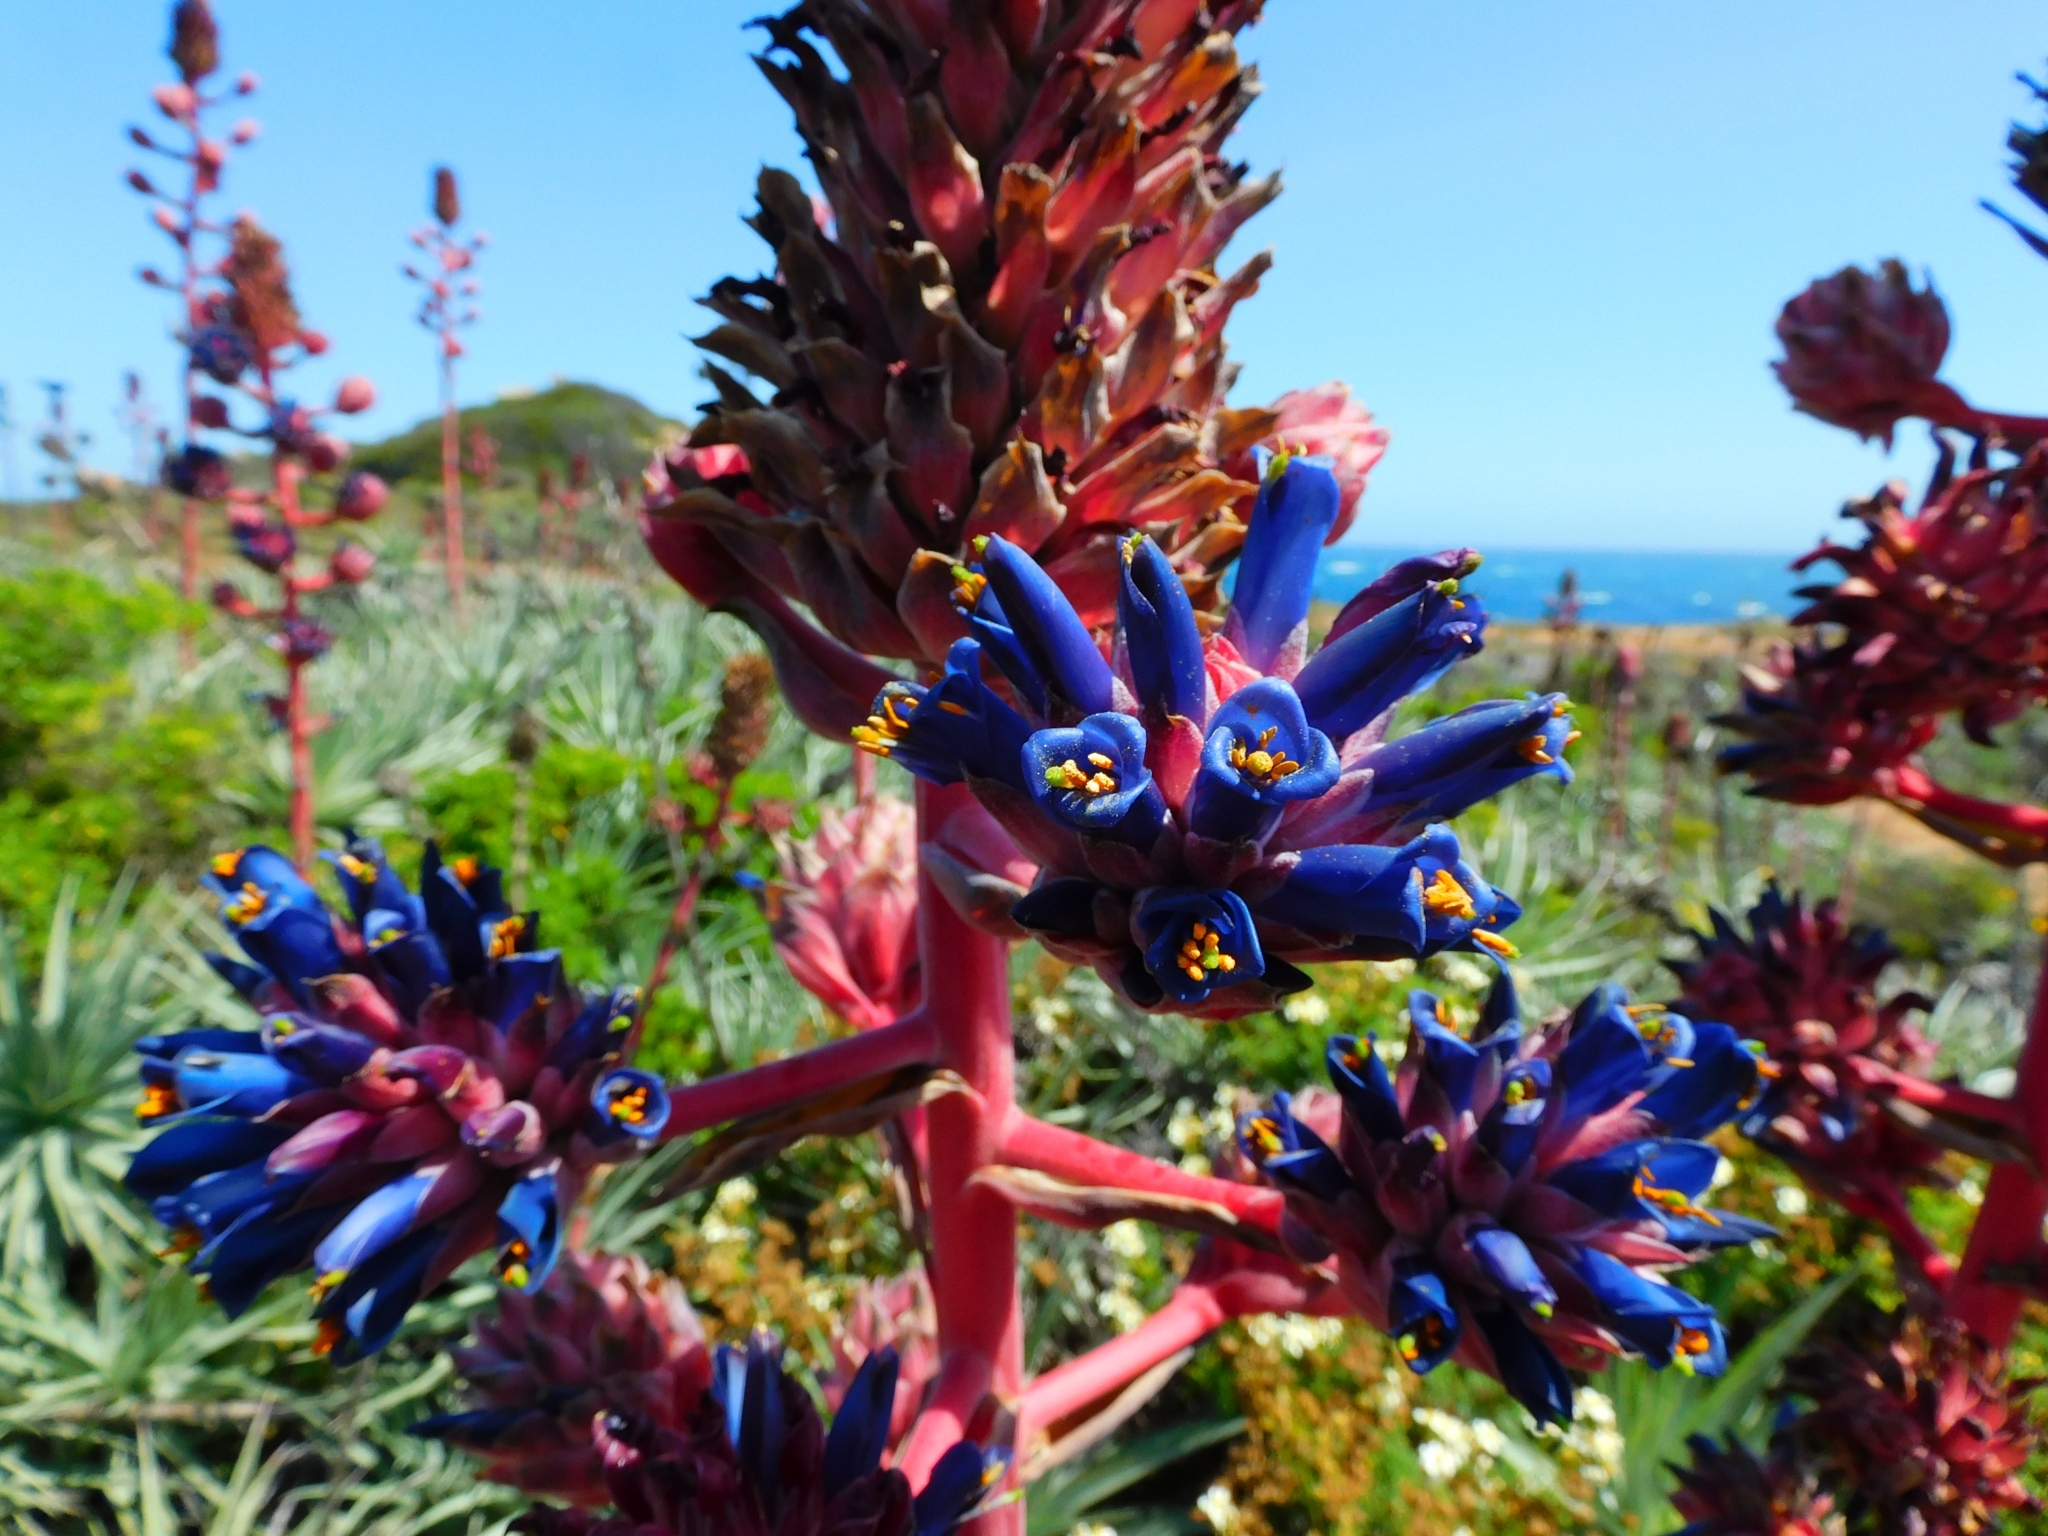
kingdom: Plantae
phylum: Tracheophyta
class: Liliopsida
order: Poales
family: Bromeliaceae
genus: Puya
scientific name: Puya venusta
